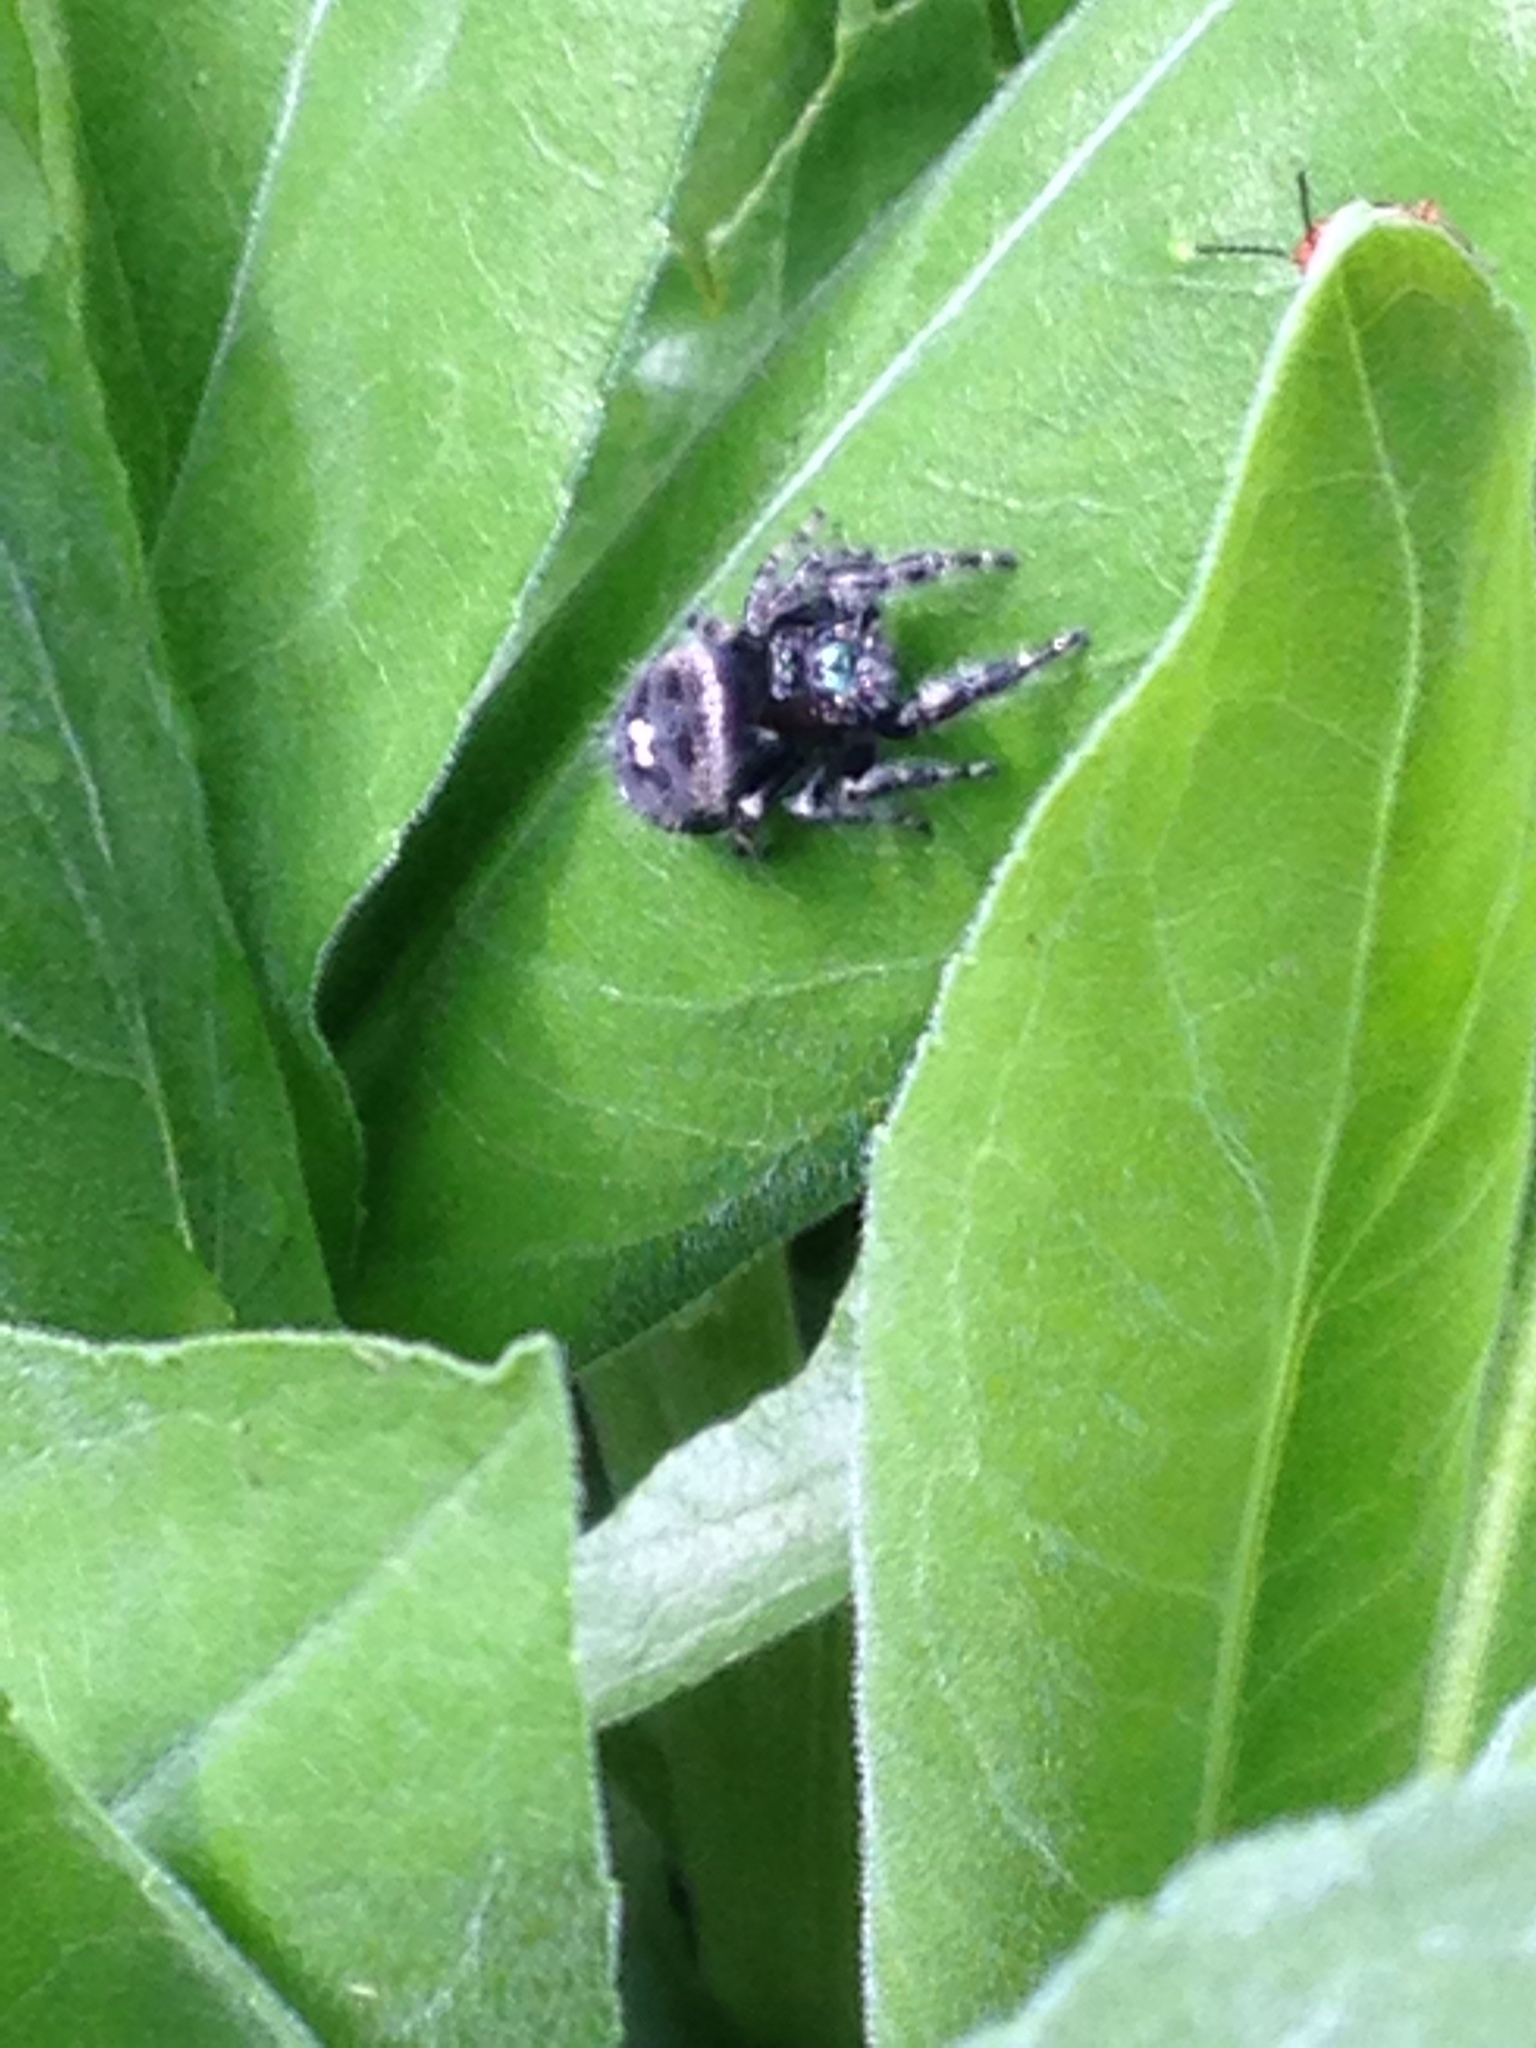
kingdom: Animalia
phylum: Arthropoda
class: Arachnida
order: Araneae
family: Salticidae
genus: Phidippus
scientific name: Phidippus audax
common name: Bold jumper
